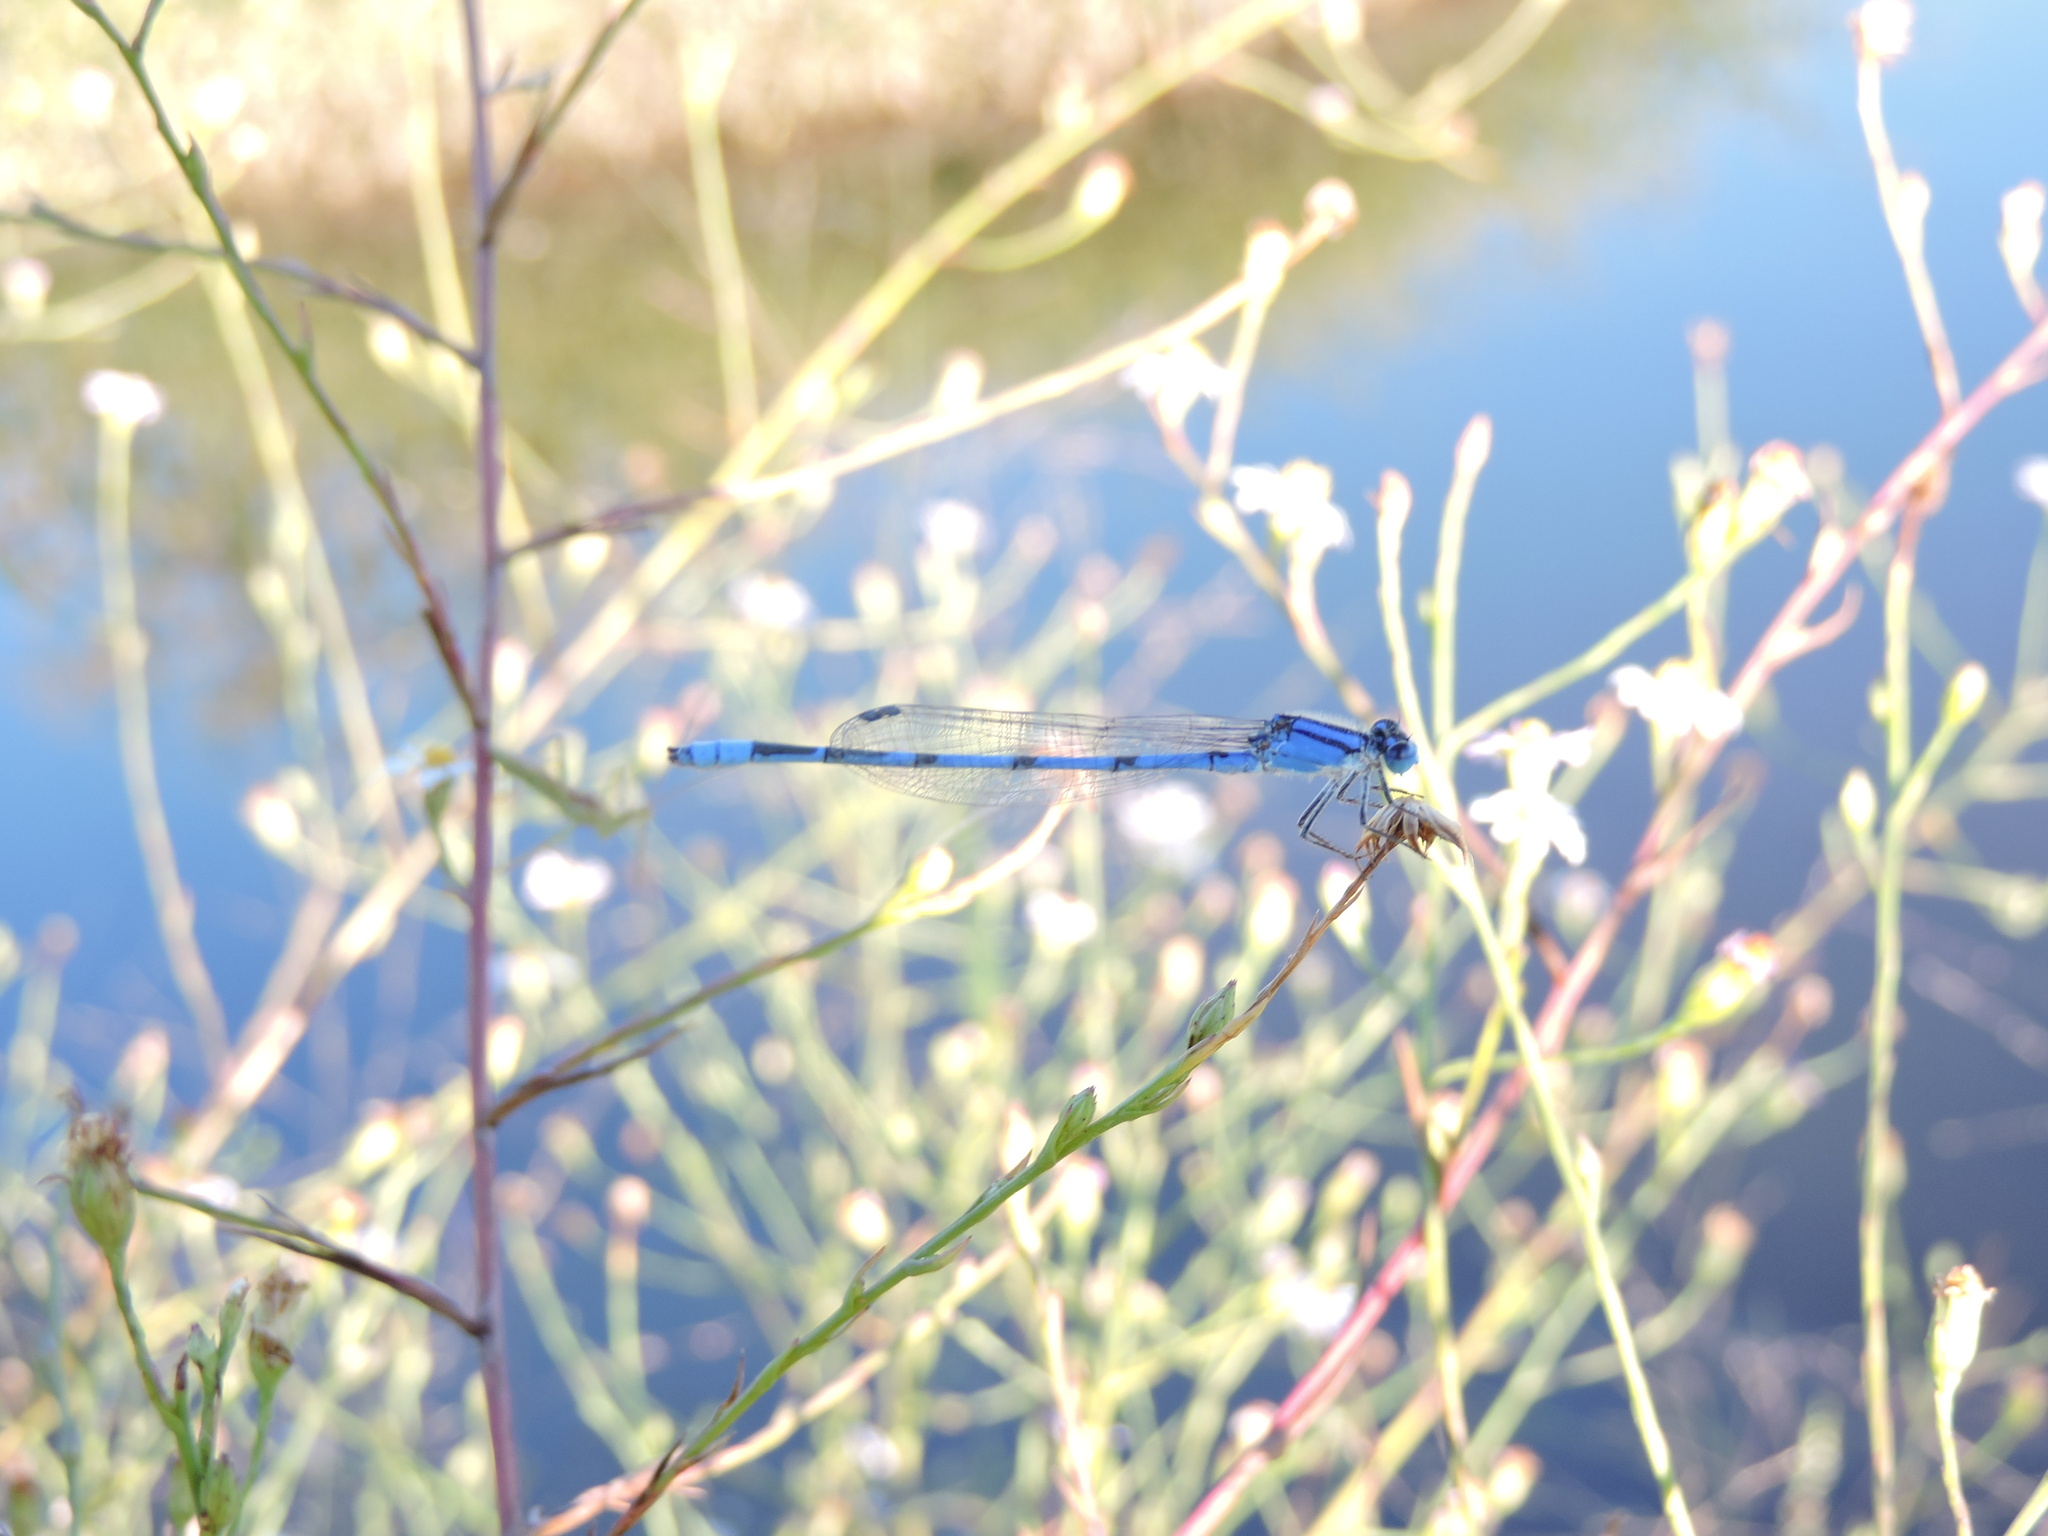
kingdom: Animalia
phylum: Arthropoda
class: Insecta
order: Odonata
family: Coenagrionidae
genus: Enallagma
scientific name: Enallagma civile
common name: Damselfly
